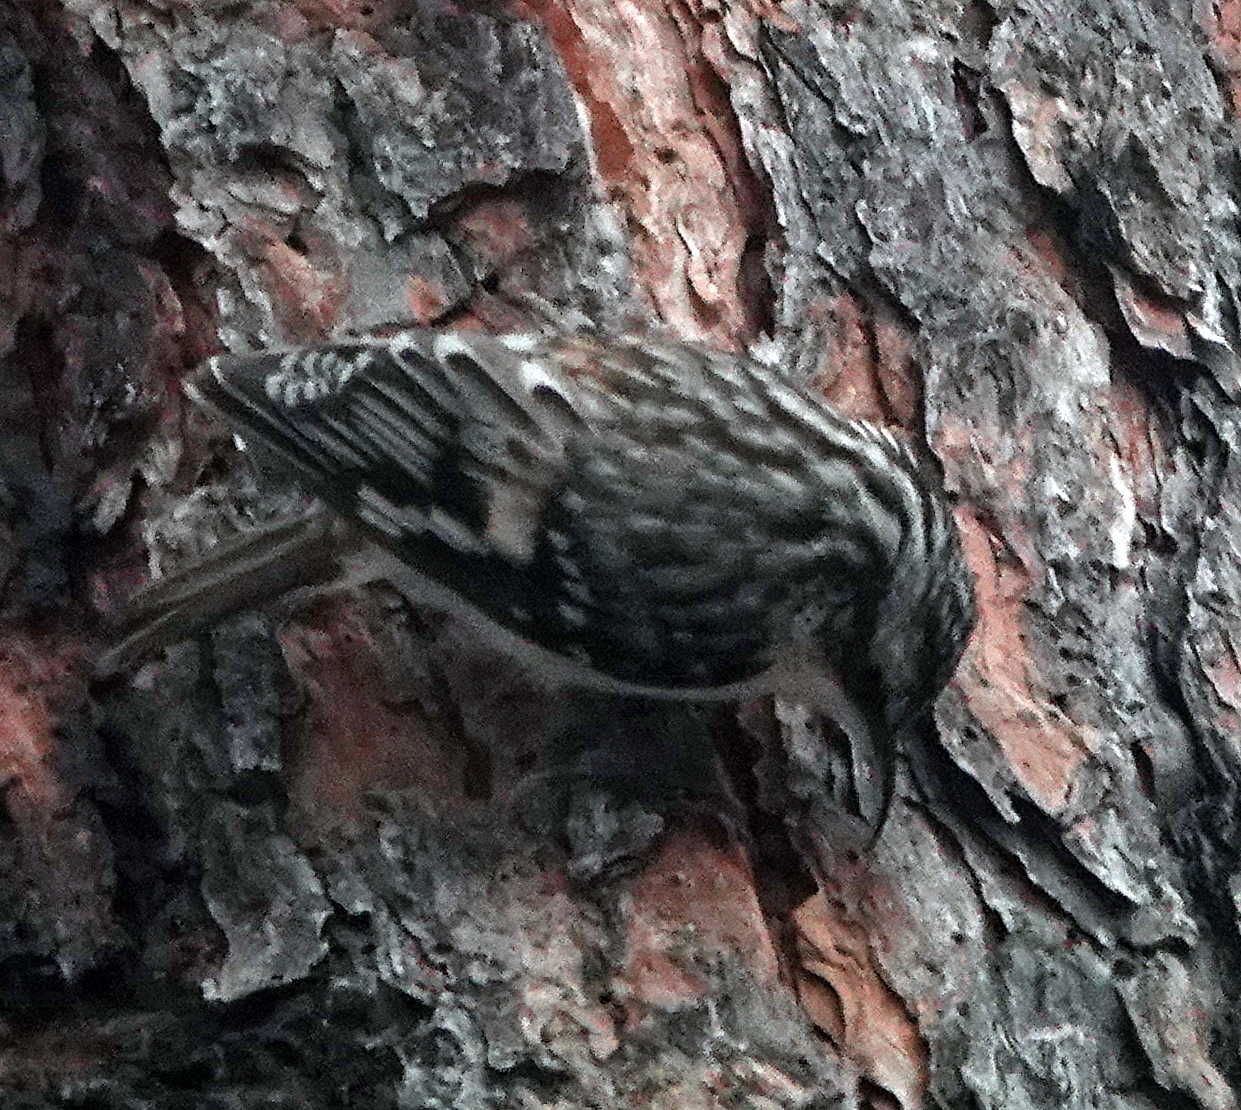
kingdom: Animalia
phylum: Chordata
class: Aves
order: Passeriformes
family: Certhiidae
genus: Certhia
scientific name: Certhia americana
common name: Brown creeper
